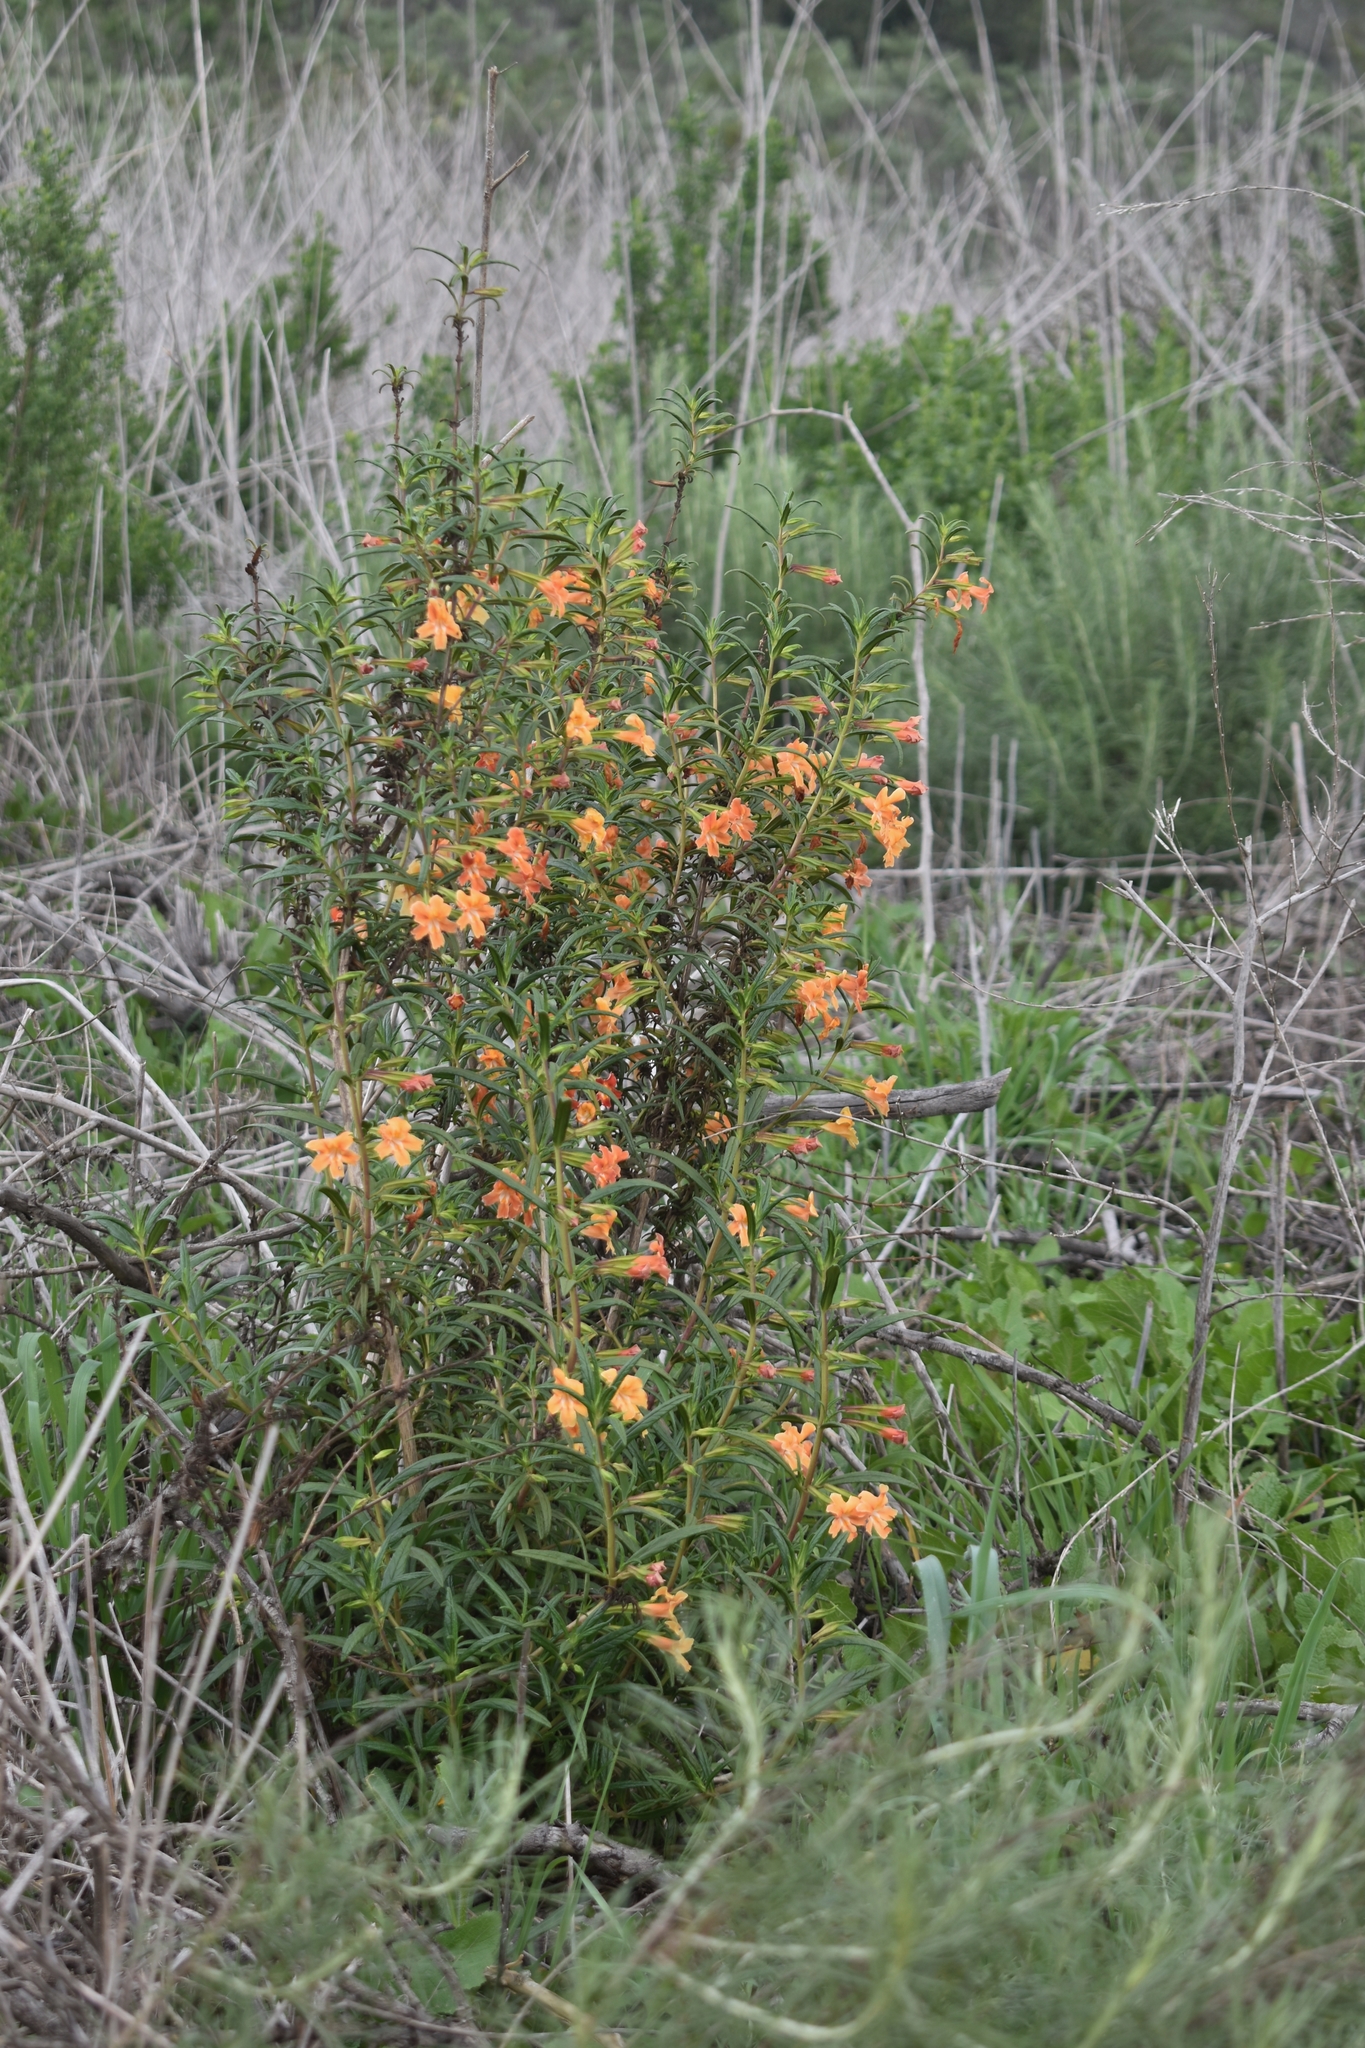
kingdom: Plantae
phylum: Tracheophyta
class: Magnoliopsida
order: Lamiales
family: Phrymaceae
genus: Diplacus
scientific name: Diplacus
